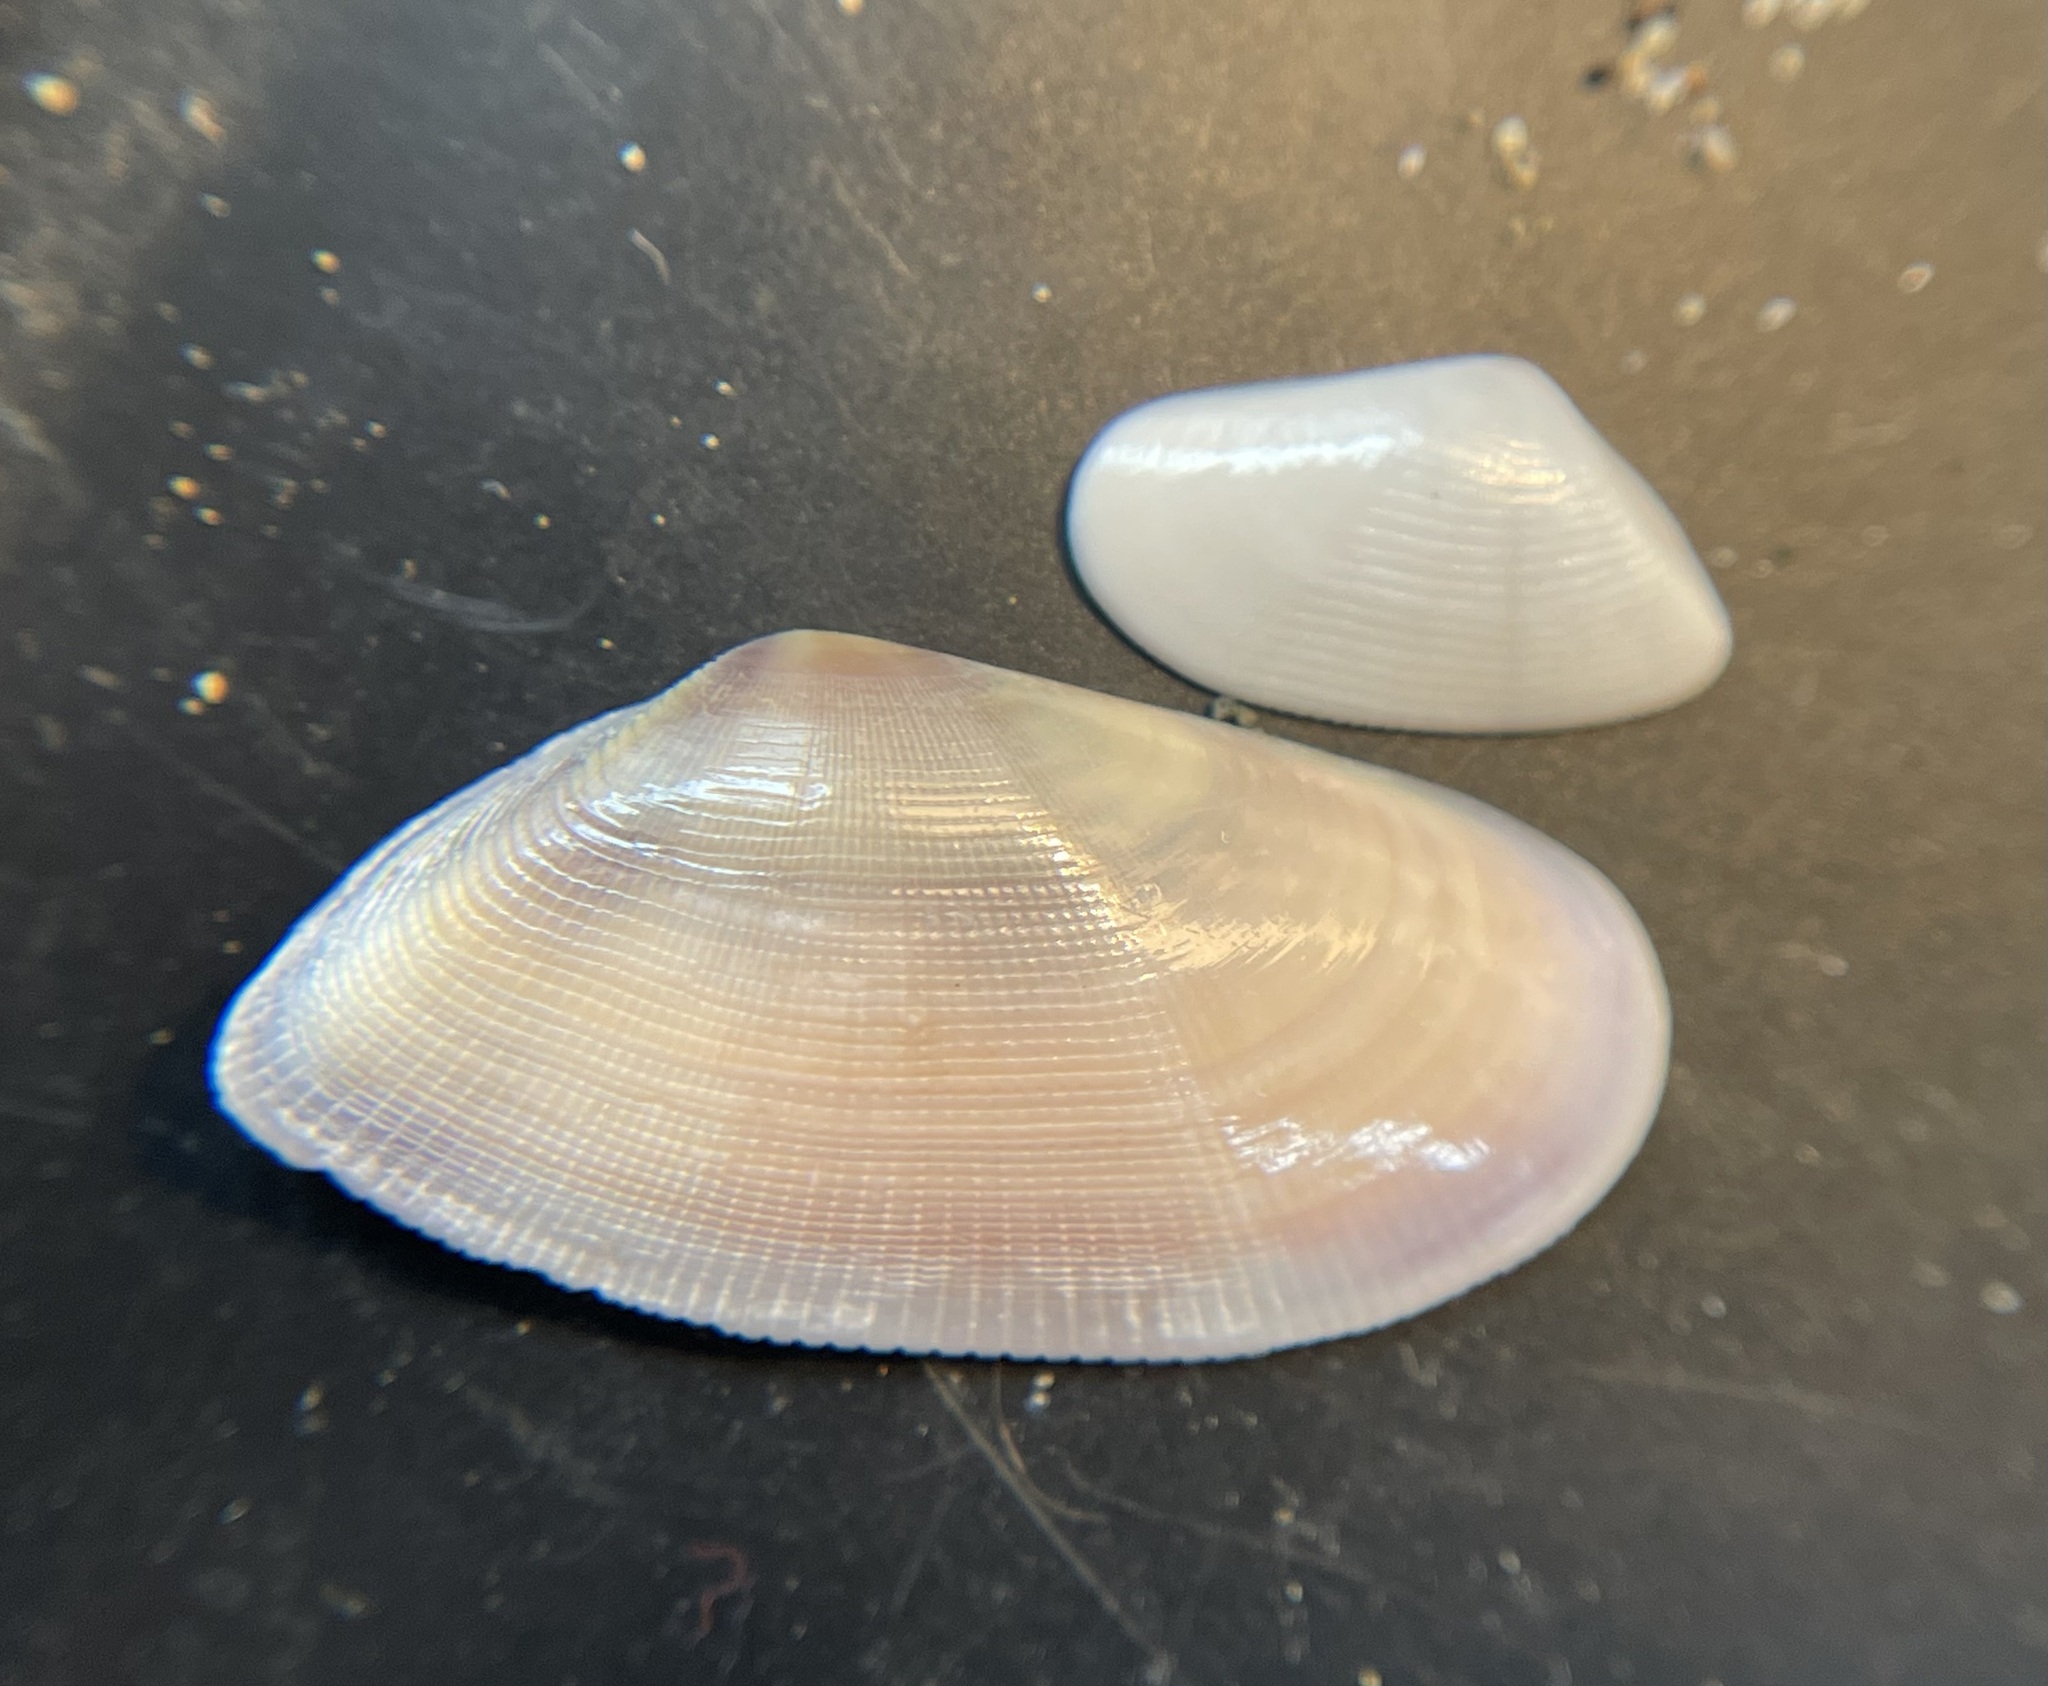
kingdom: Animalia
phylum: Mollusca
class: Bivalvia
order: Cardiida
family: Donacidae
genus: Donax
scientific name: Donax semistriatus
